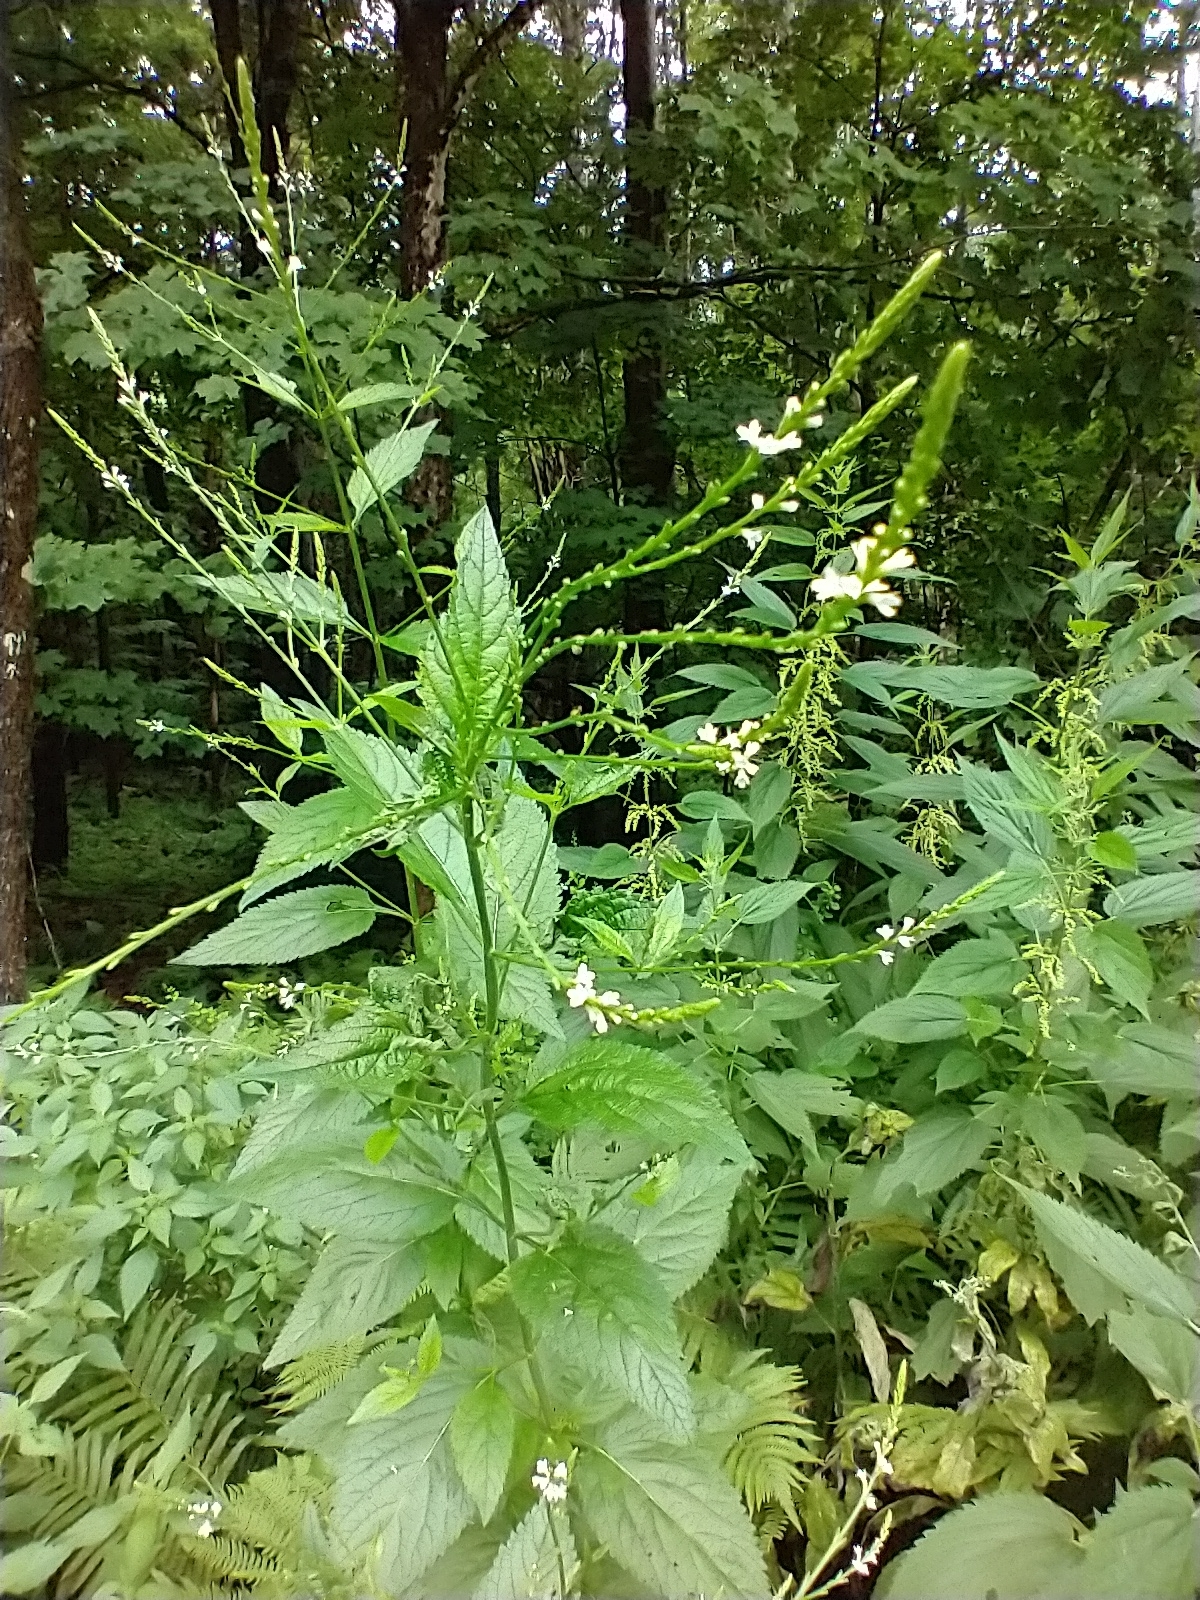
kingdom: Plantae
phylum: Tracheophyta
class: Magnoliopsida
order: Lamiales
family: Verbenaceae
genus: Verbena
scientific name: Verbena urticifolia
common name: Nettle-leaved vervain
